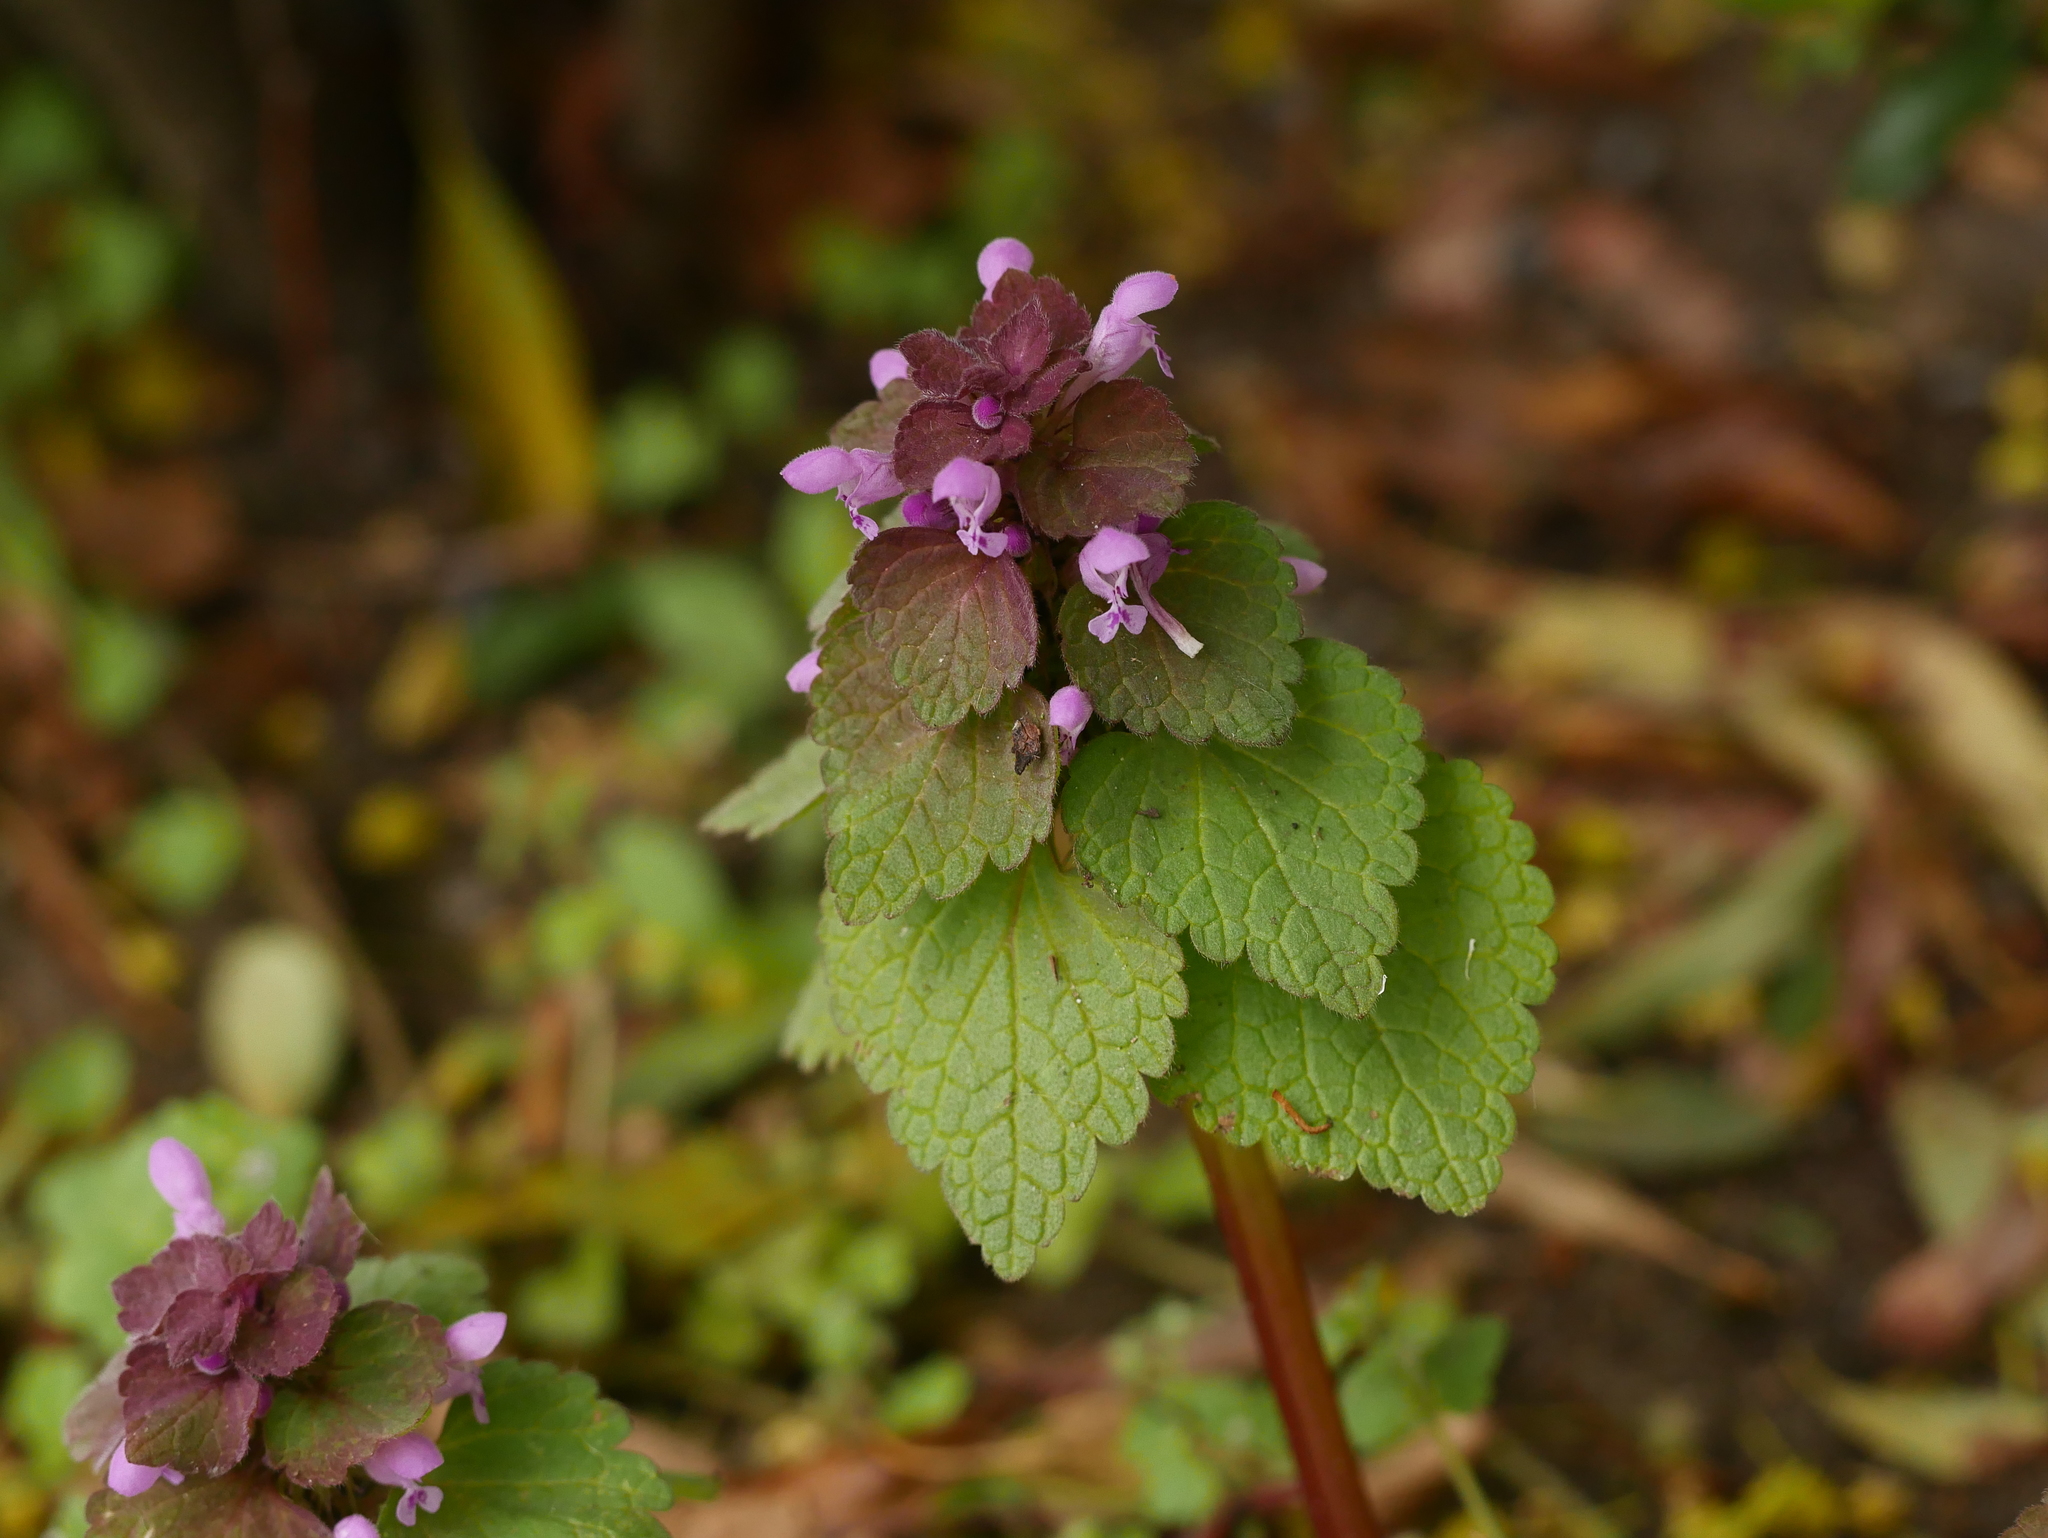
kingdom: Plantae
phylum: Tracheophyta
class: Magnoliopsida
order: Lamiales
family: Lamiaceae
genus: Lamium
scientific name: Lamium purpureum
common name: Red dead-nettle
